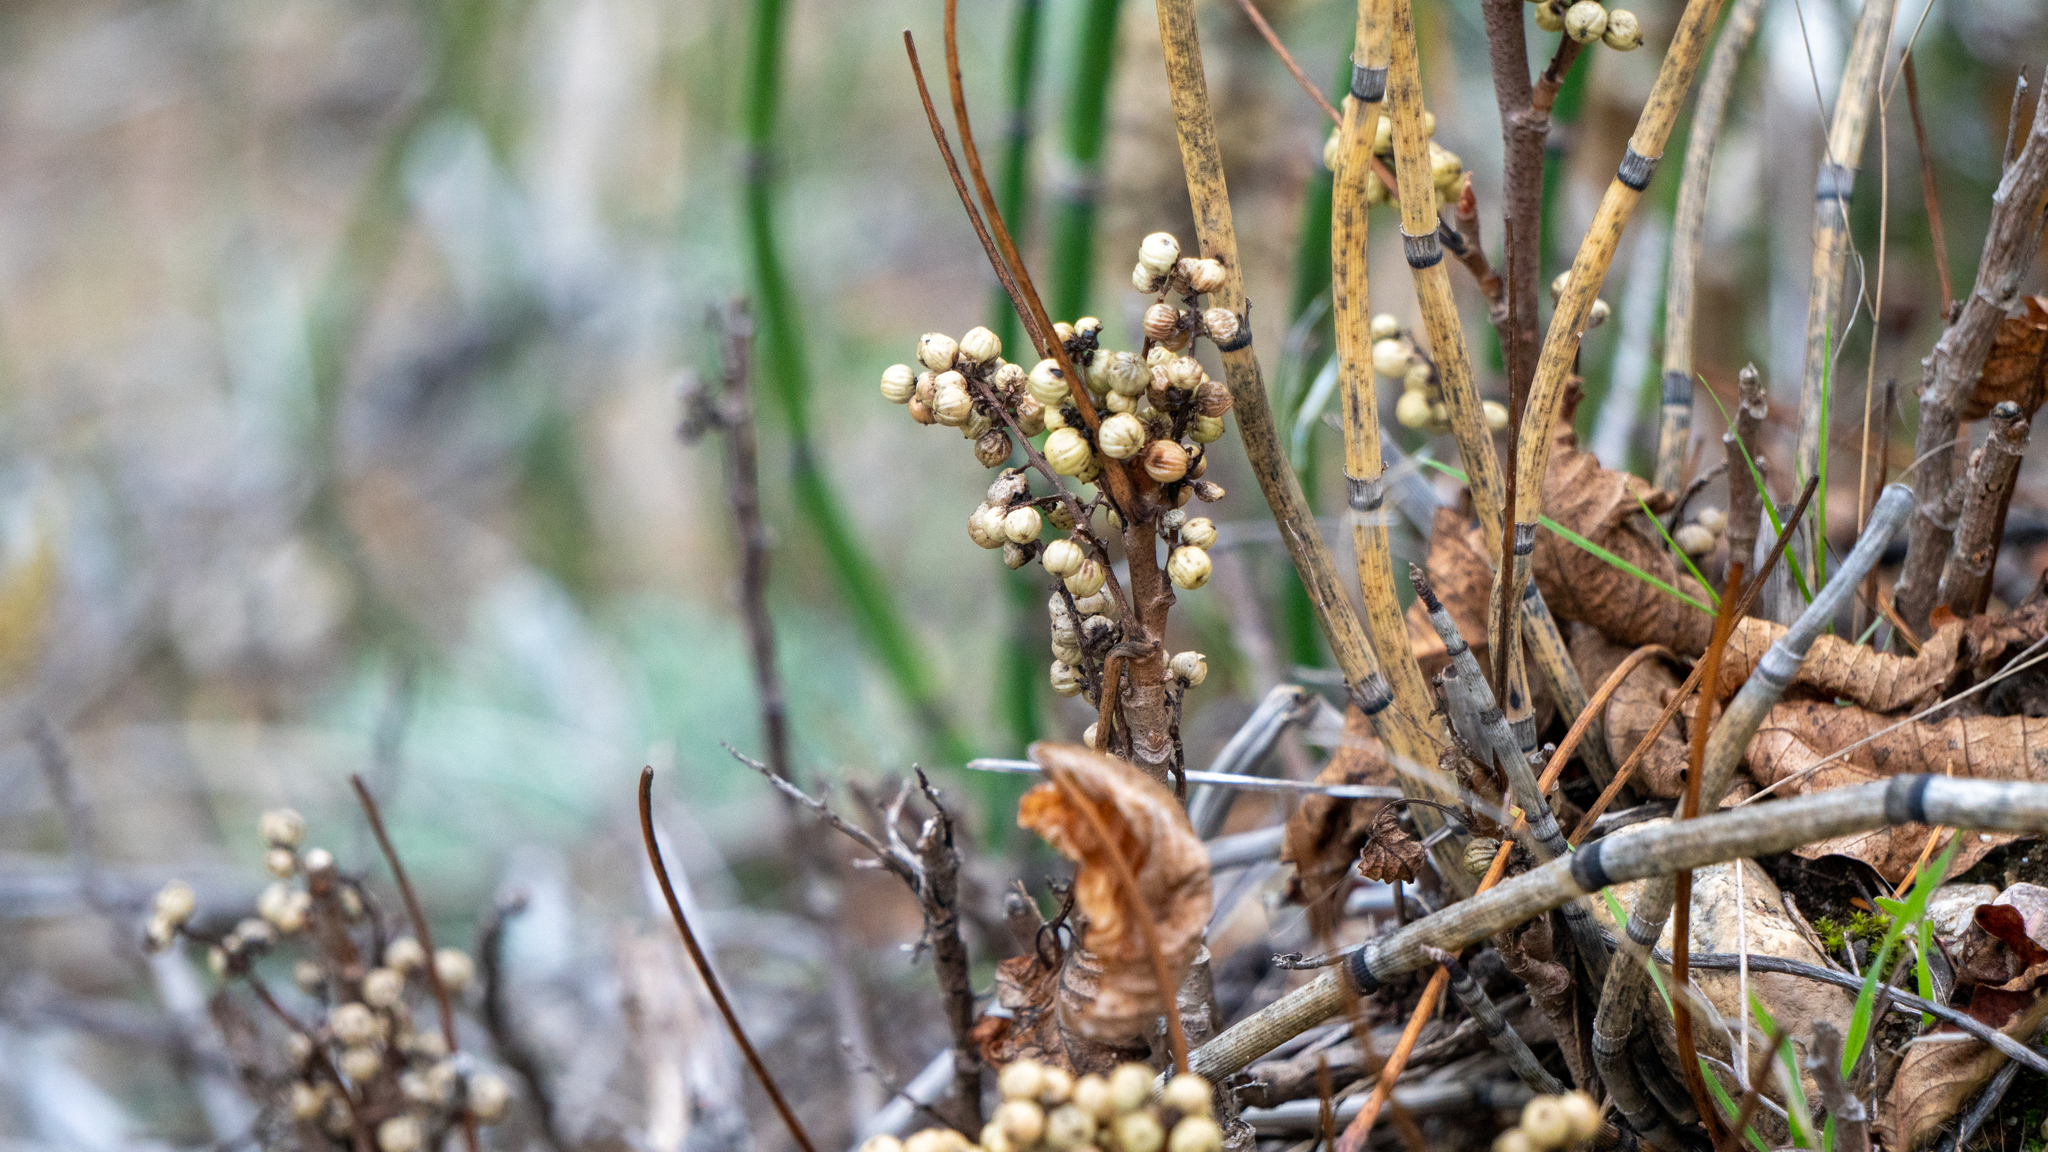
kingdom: Plantae
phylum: Tracheophyta
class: Magnoliopsida
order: Sapindales
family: Anacardiaceae
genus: Toxicodendron
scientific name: Toxicodendron rydbergii
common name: Rydberg's poison-ivy
